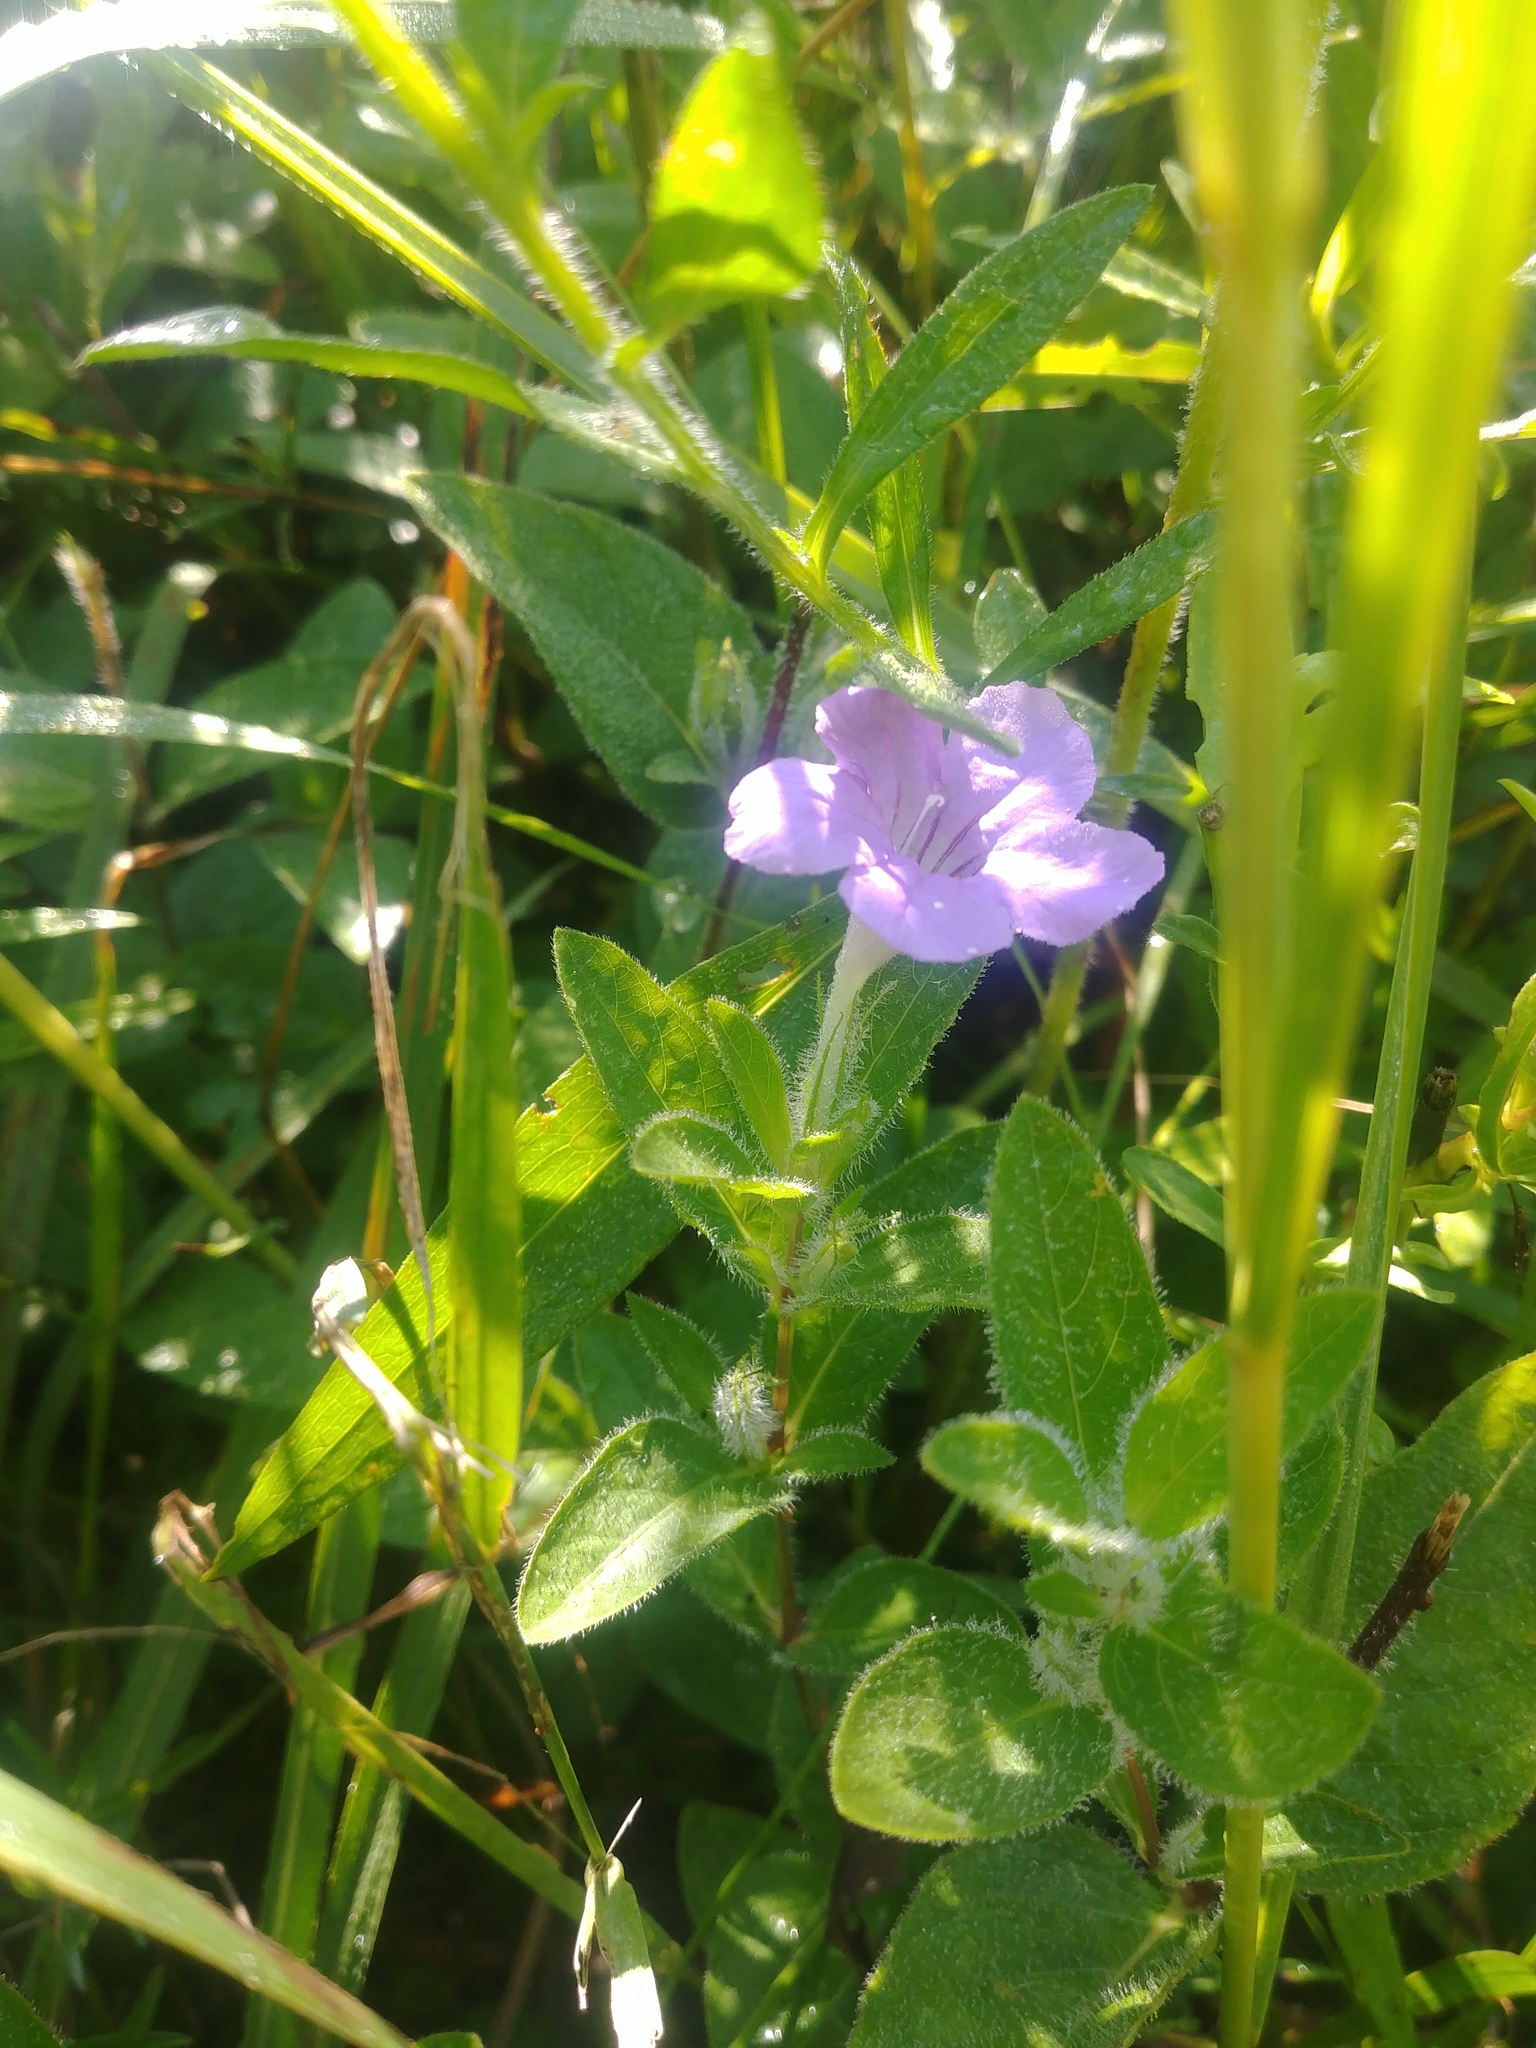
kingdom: Plantae
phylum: Tracheophyta
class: Magnoliopsida
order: Lamiales
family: Acanthaceae
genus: Ruellia
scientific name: Ruellia humilis
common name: Fringe-leaf ruellia
